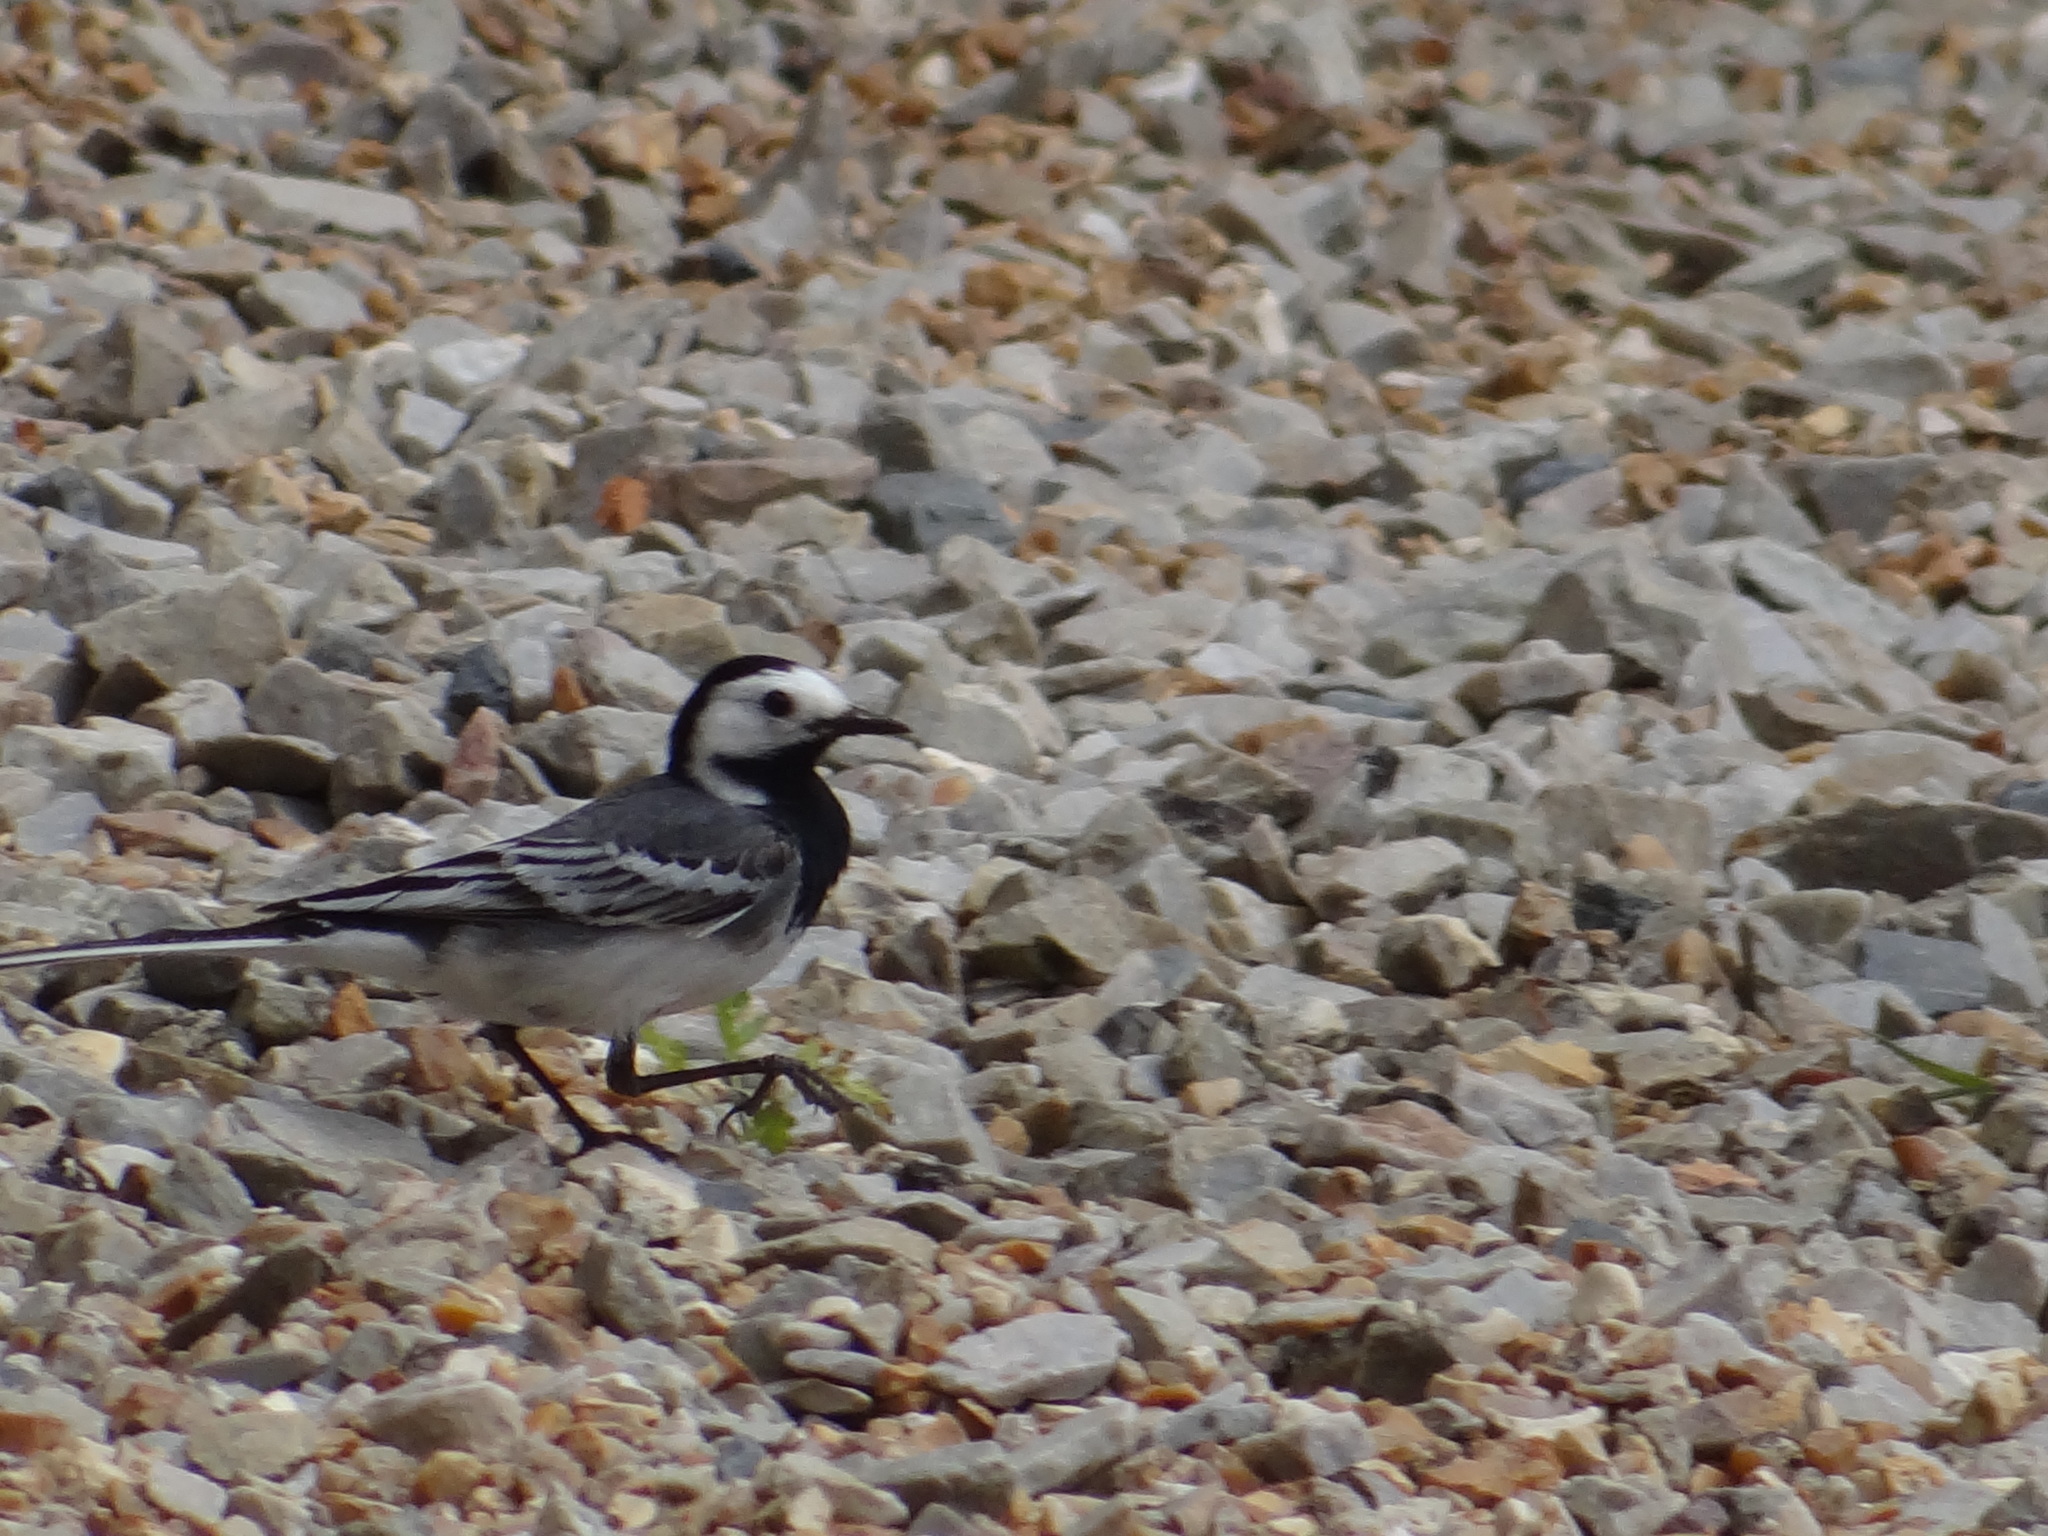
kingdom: Animalia
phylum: Chordata
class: Aves
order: Passeriformes
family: Motacillidae
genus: Motacilla
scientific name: Motacilla alba
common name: White wagtail
